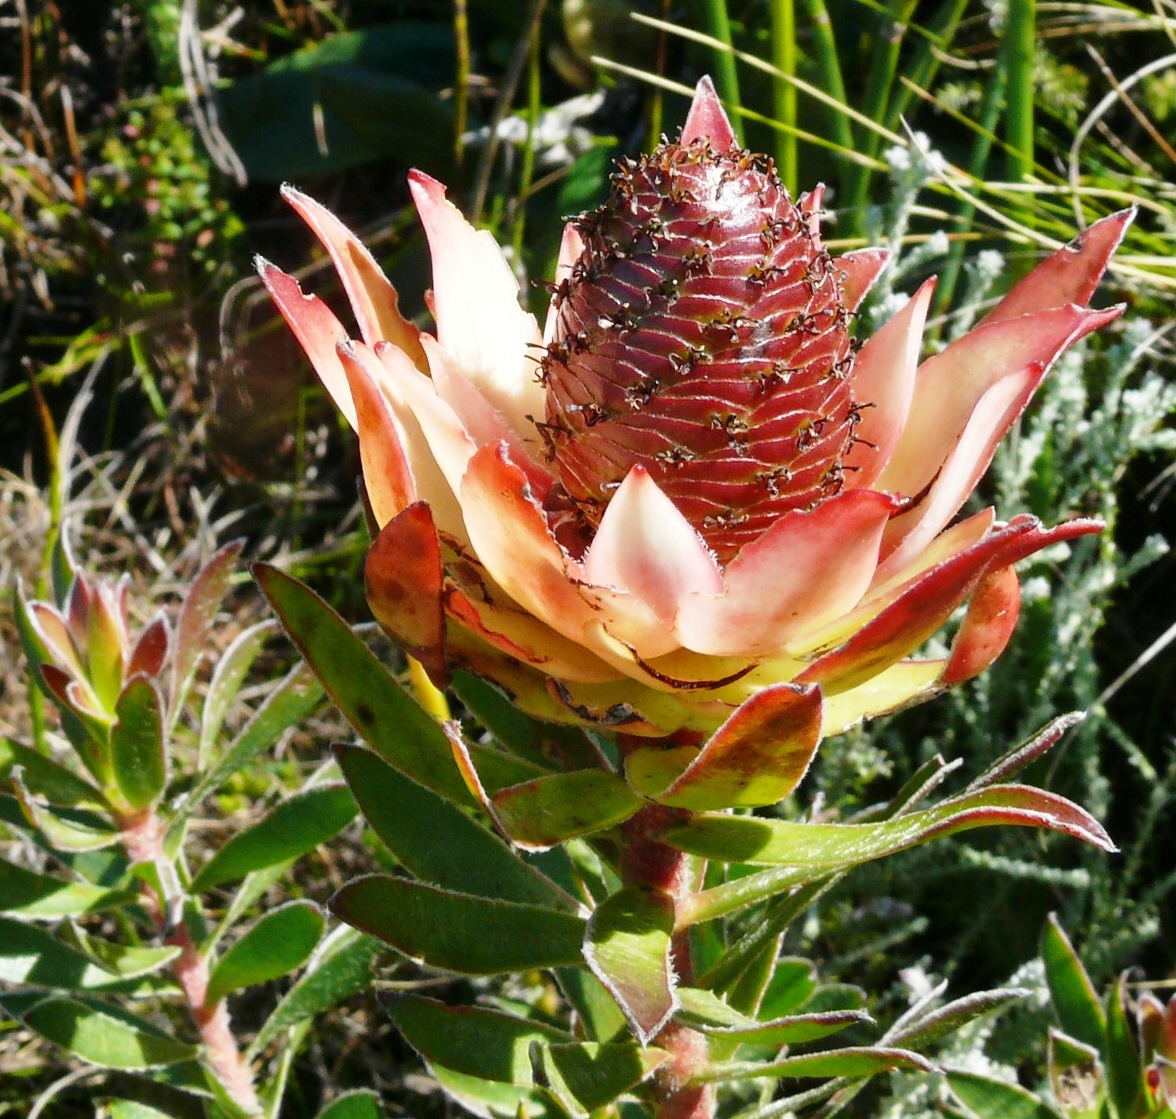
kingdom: Plantae
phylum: Tracheophyta
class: Magnoliopsida
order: Proteales
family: Proteaceae
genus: Leucadendron
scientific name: Leucadendron spissifolium
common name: Spear-leaf conebush
